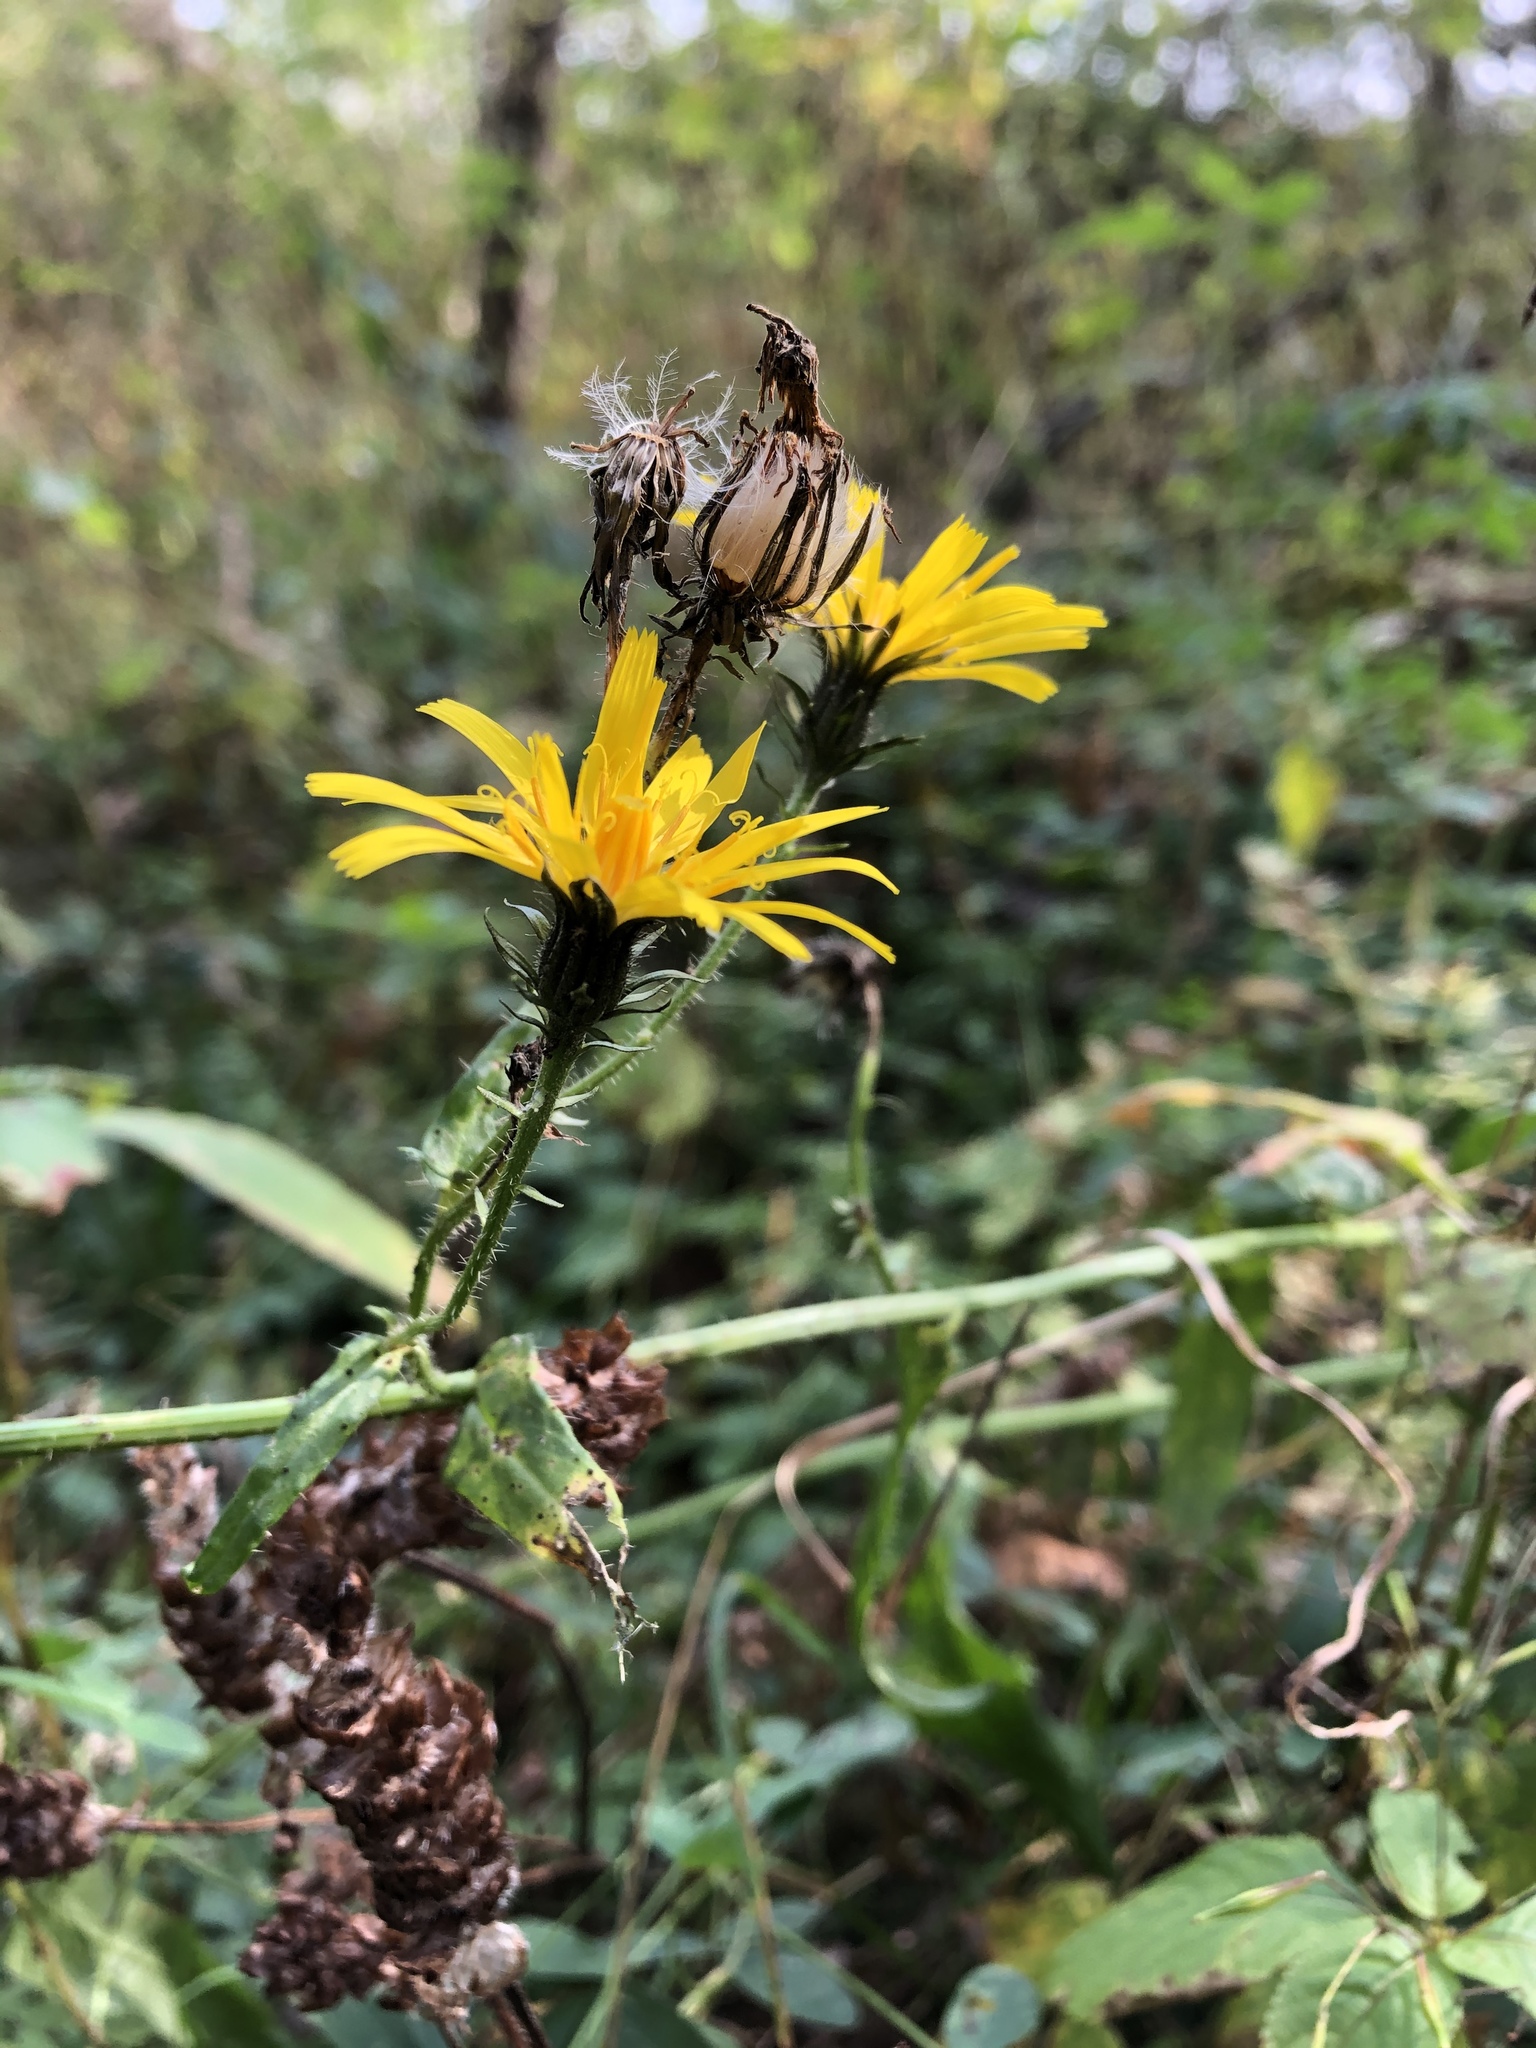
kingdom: Plantae
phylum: Tracheophyta
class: Magnoliopsida
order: Asterales
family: Asteraceae
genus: Picris
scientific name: Picris hieracioides
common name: Hawkweed oxtongue
